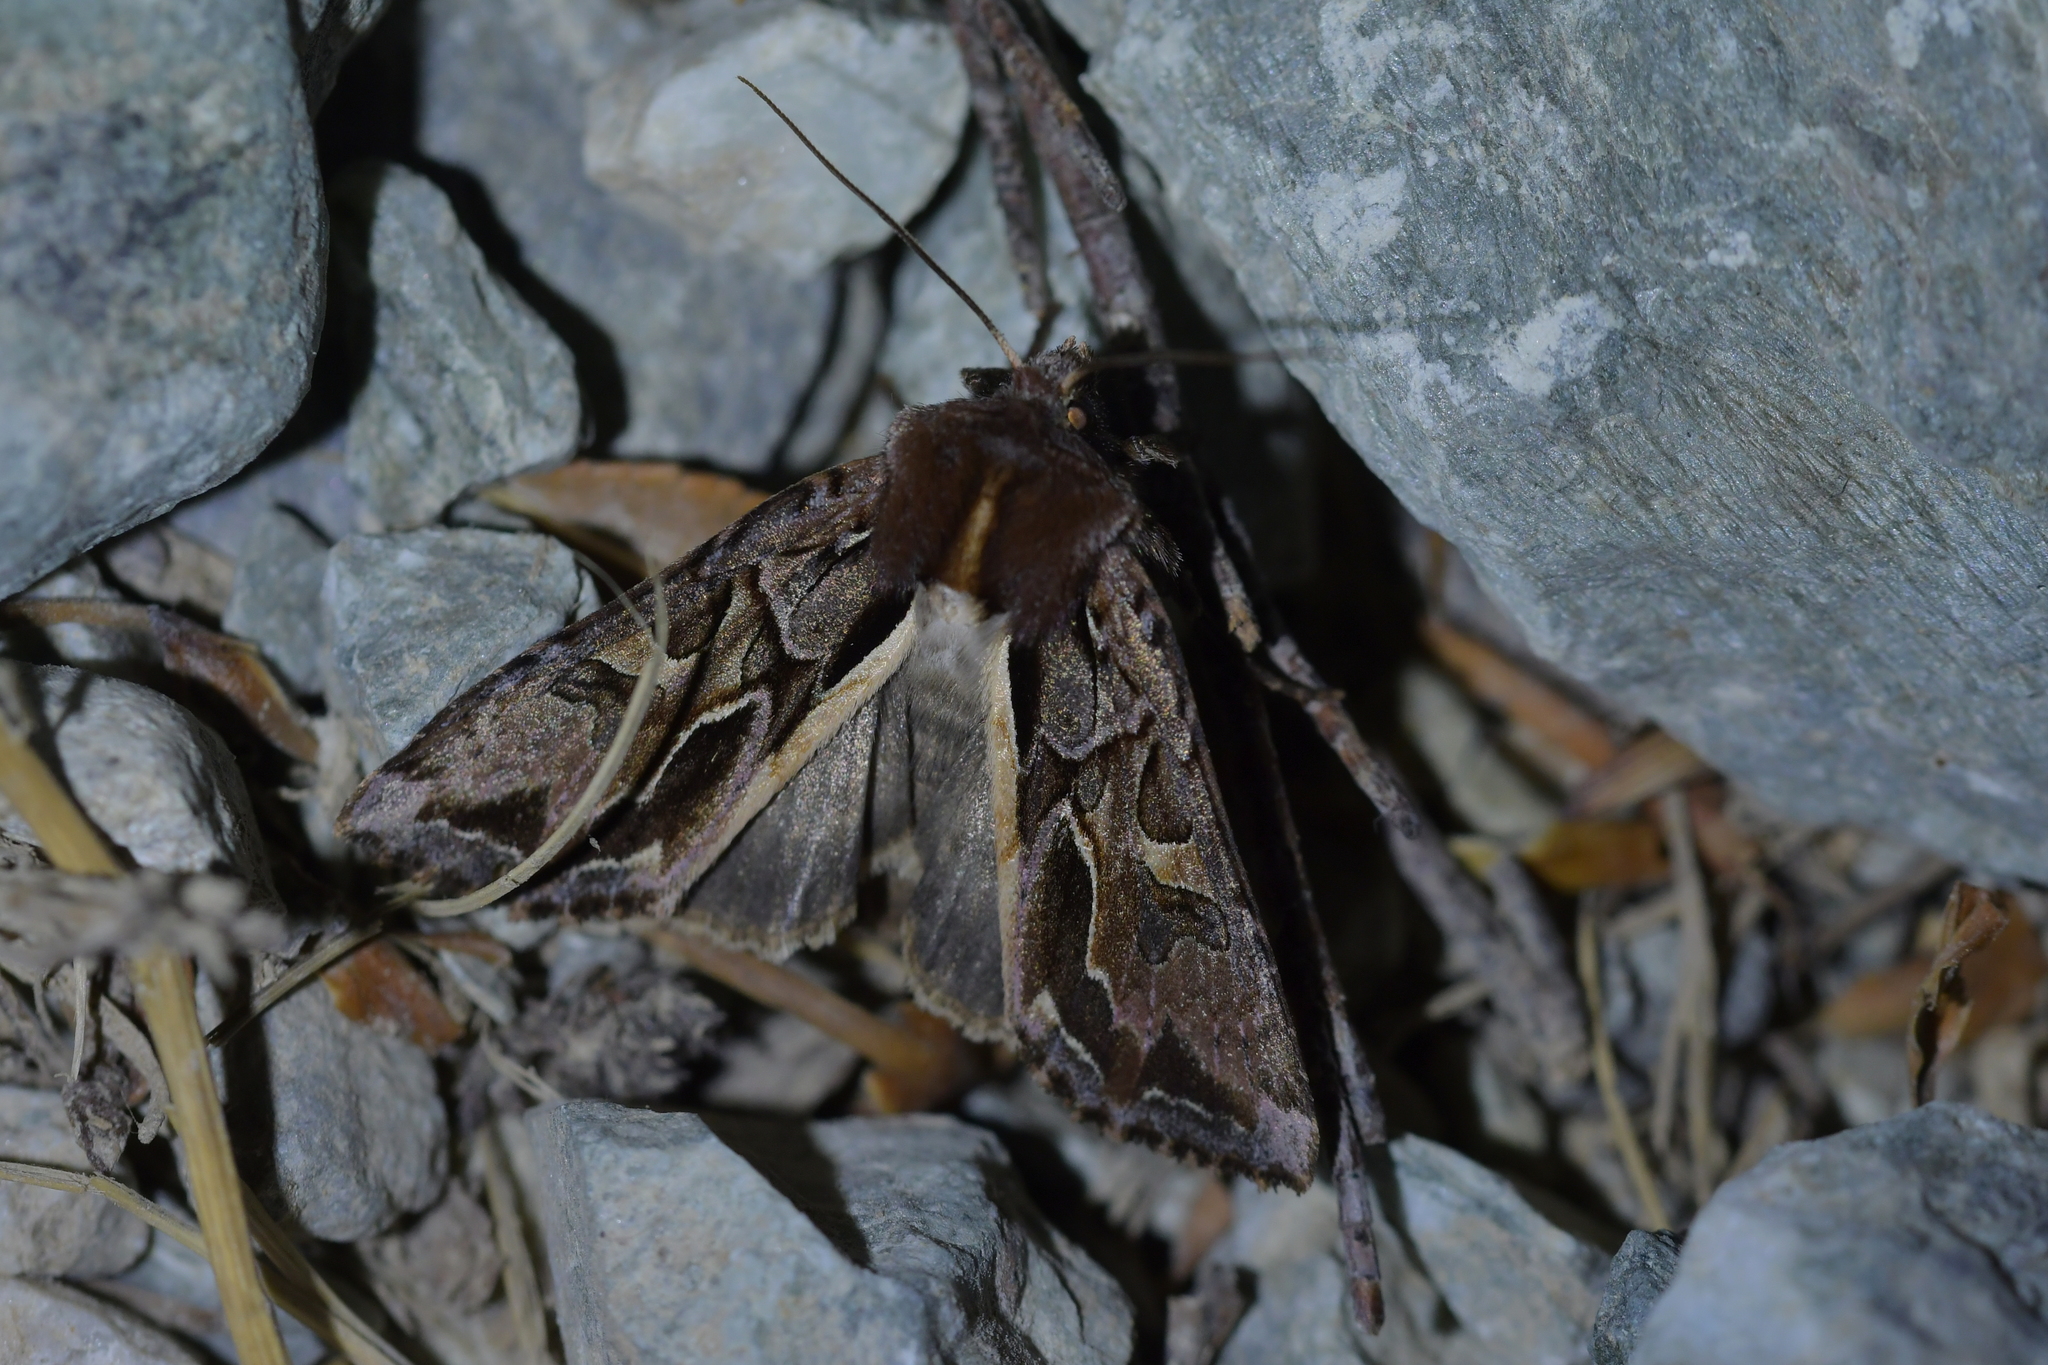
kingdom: Animalia
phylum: Arthropoda
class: Insecta
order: Lepidoptera
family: Noctuidae
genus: Ichneutica
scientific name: Ichneutica
